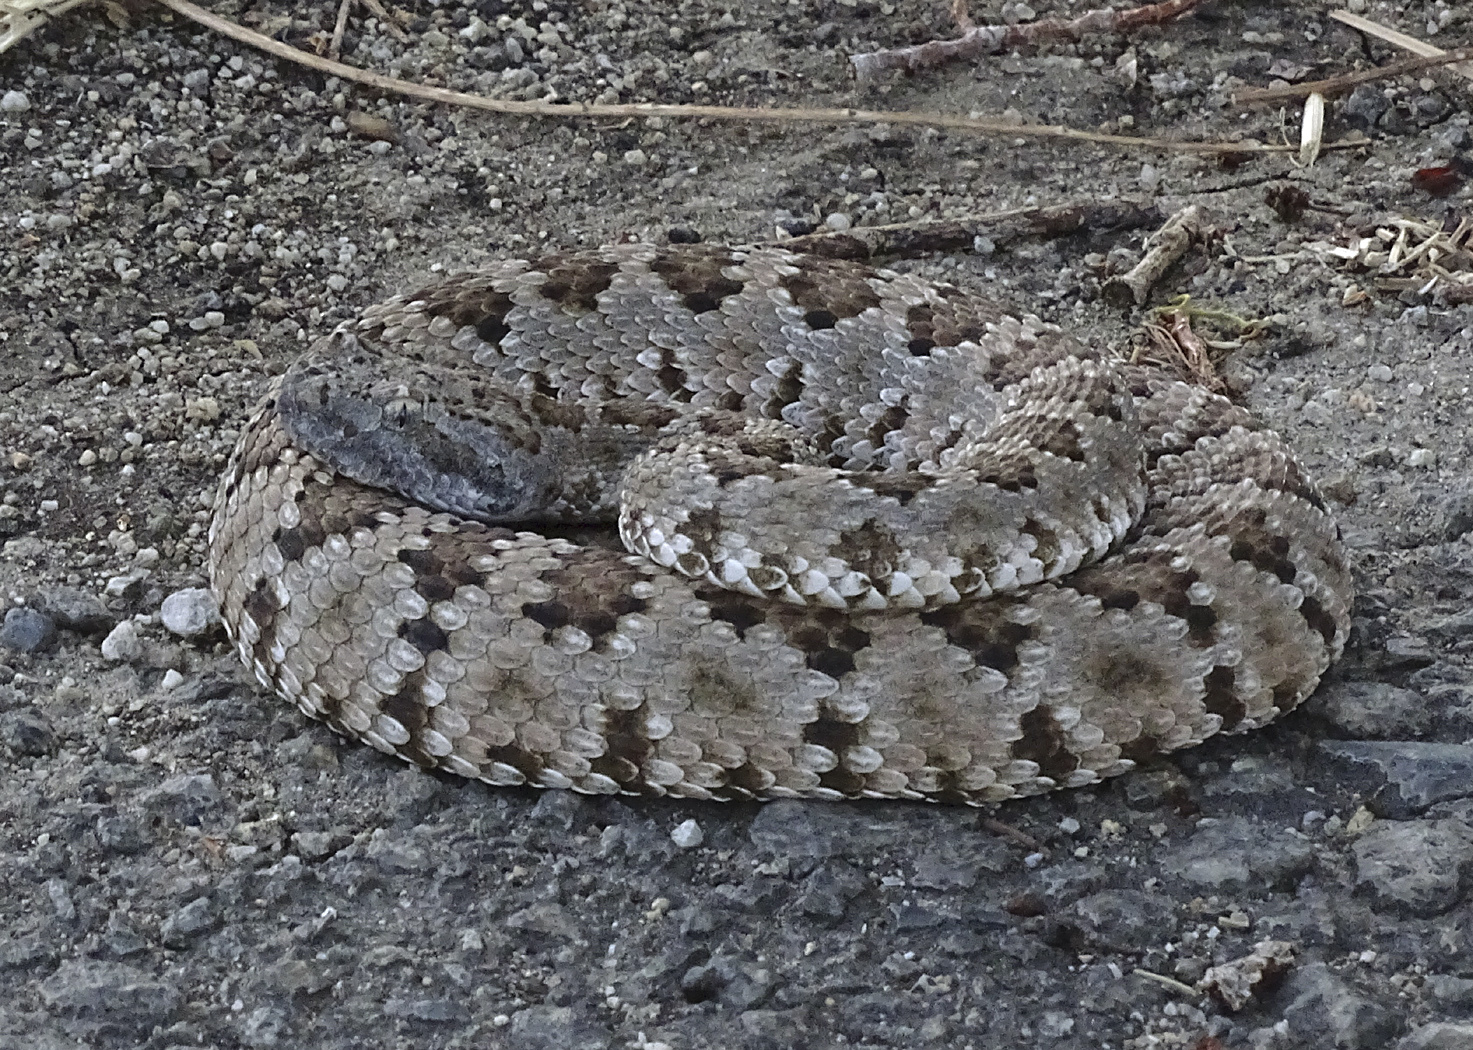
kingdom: Animalia
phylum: Chordata
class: Squamata
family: Viperidae
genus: Crotalus
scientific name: Crotalus stephensi
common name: Panamint rattlesnake
